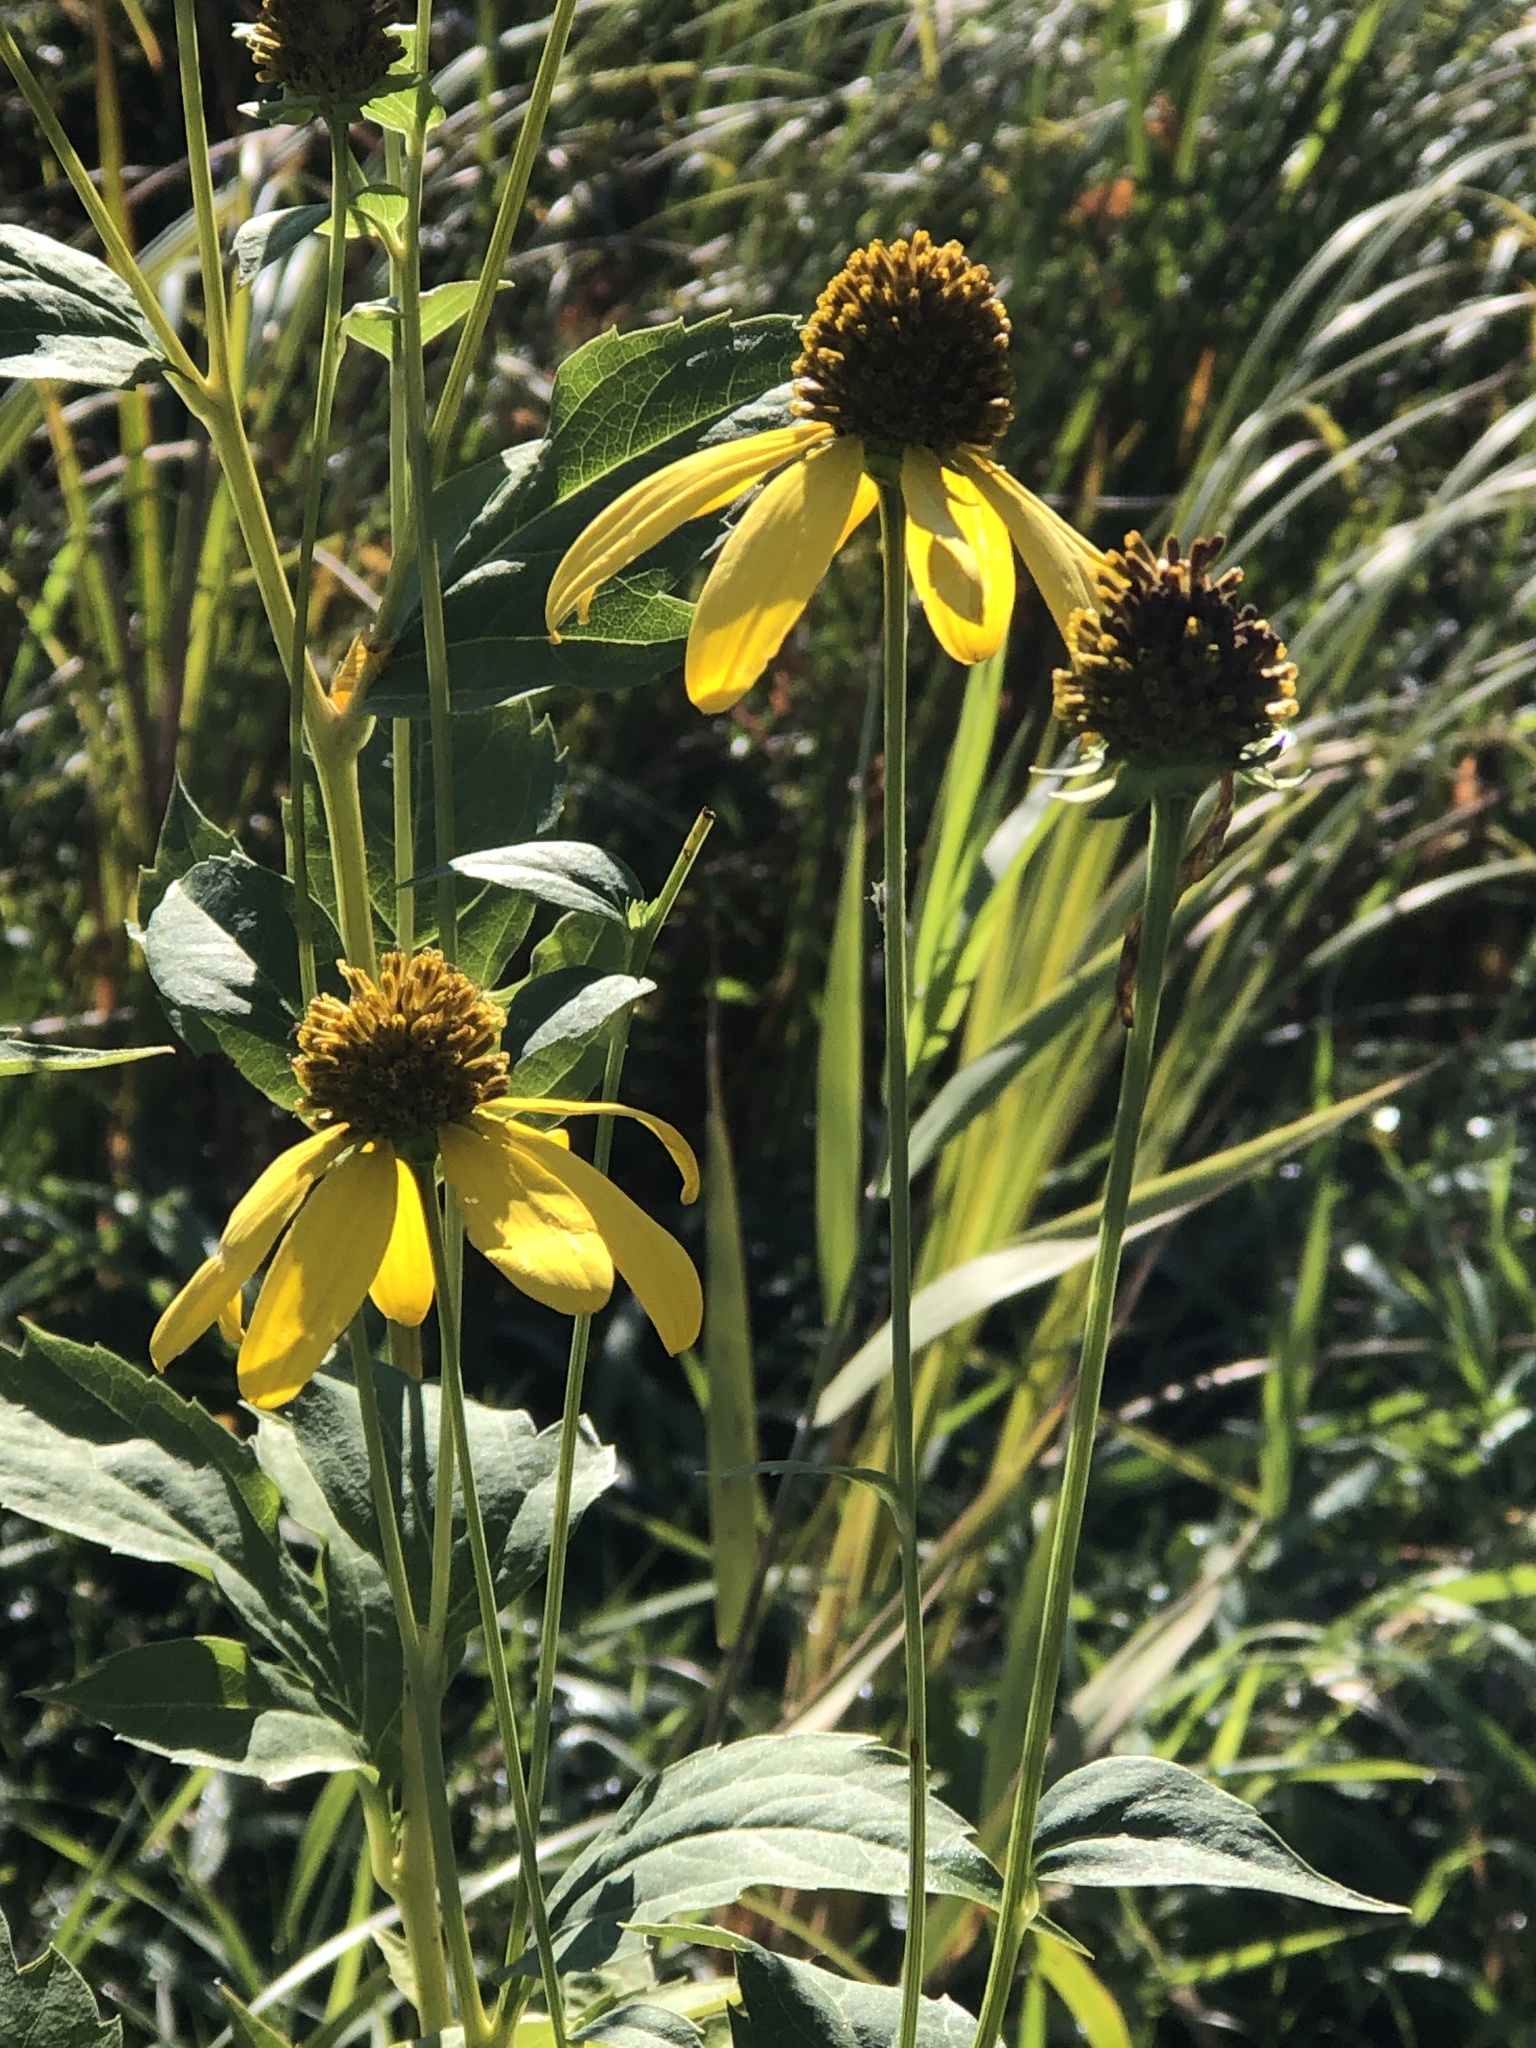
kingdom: Plantae
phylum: Tracheophyta
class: Magnoliopsida
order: Asterales
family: Asteraceae
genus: Rudbeckia
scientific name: Rudbeckia laciniata
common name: Coneflower
